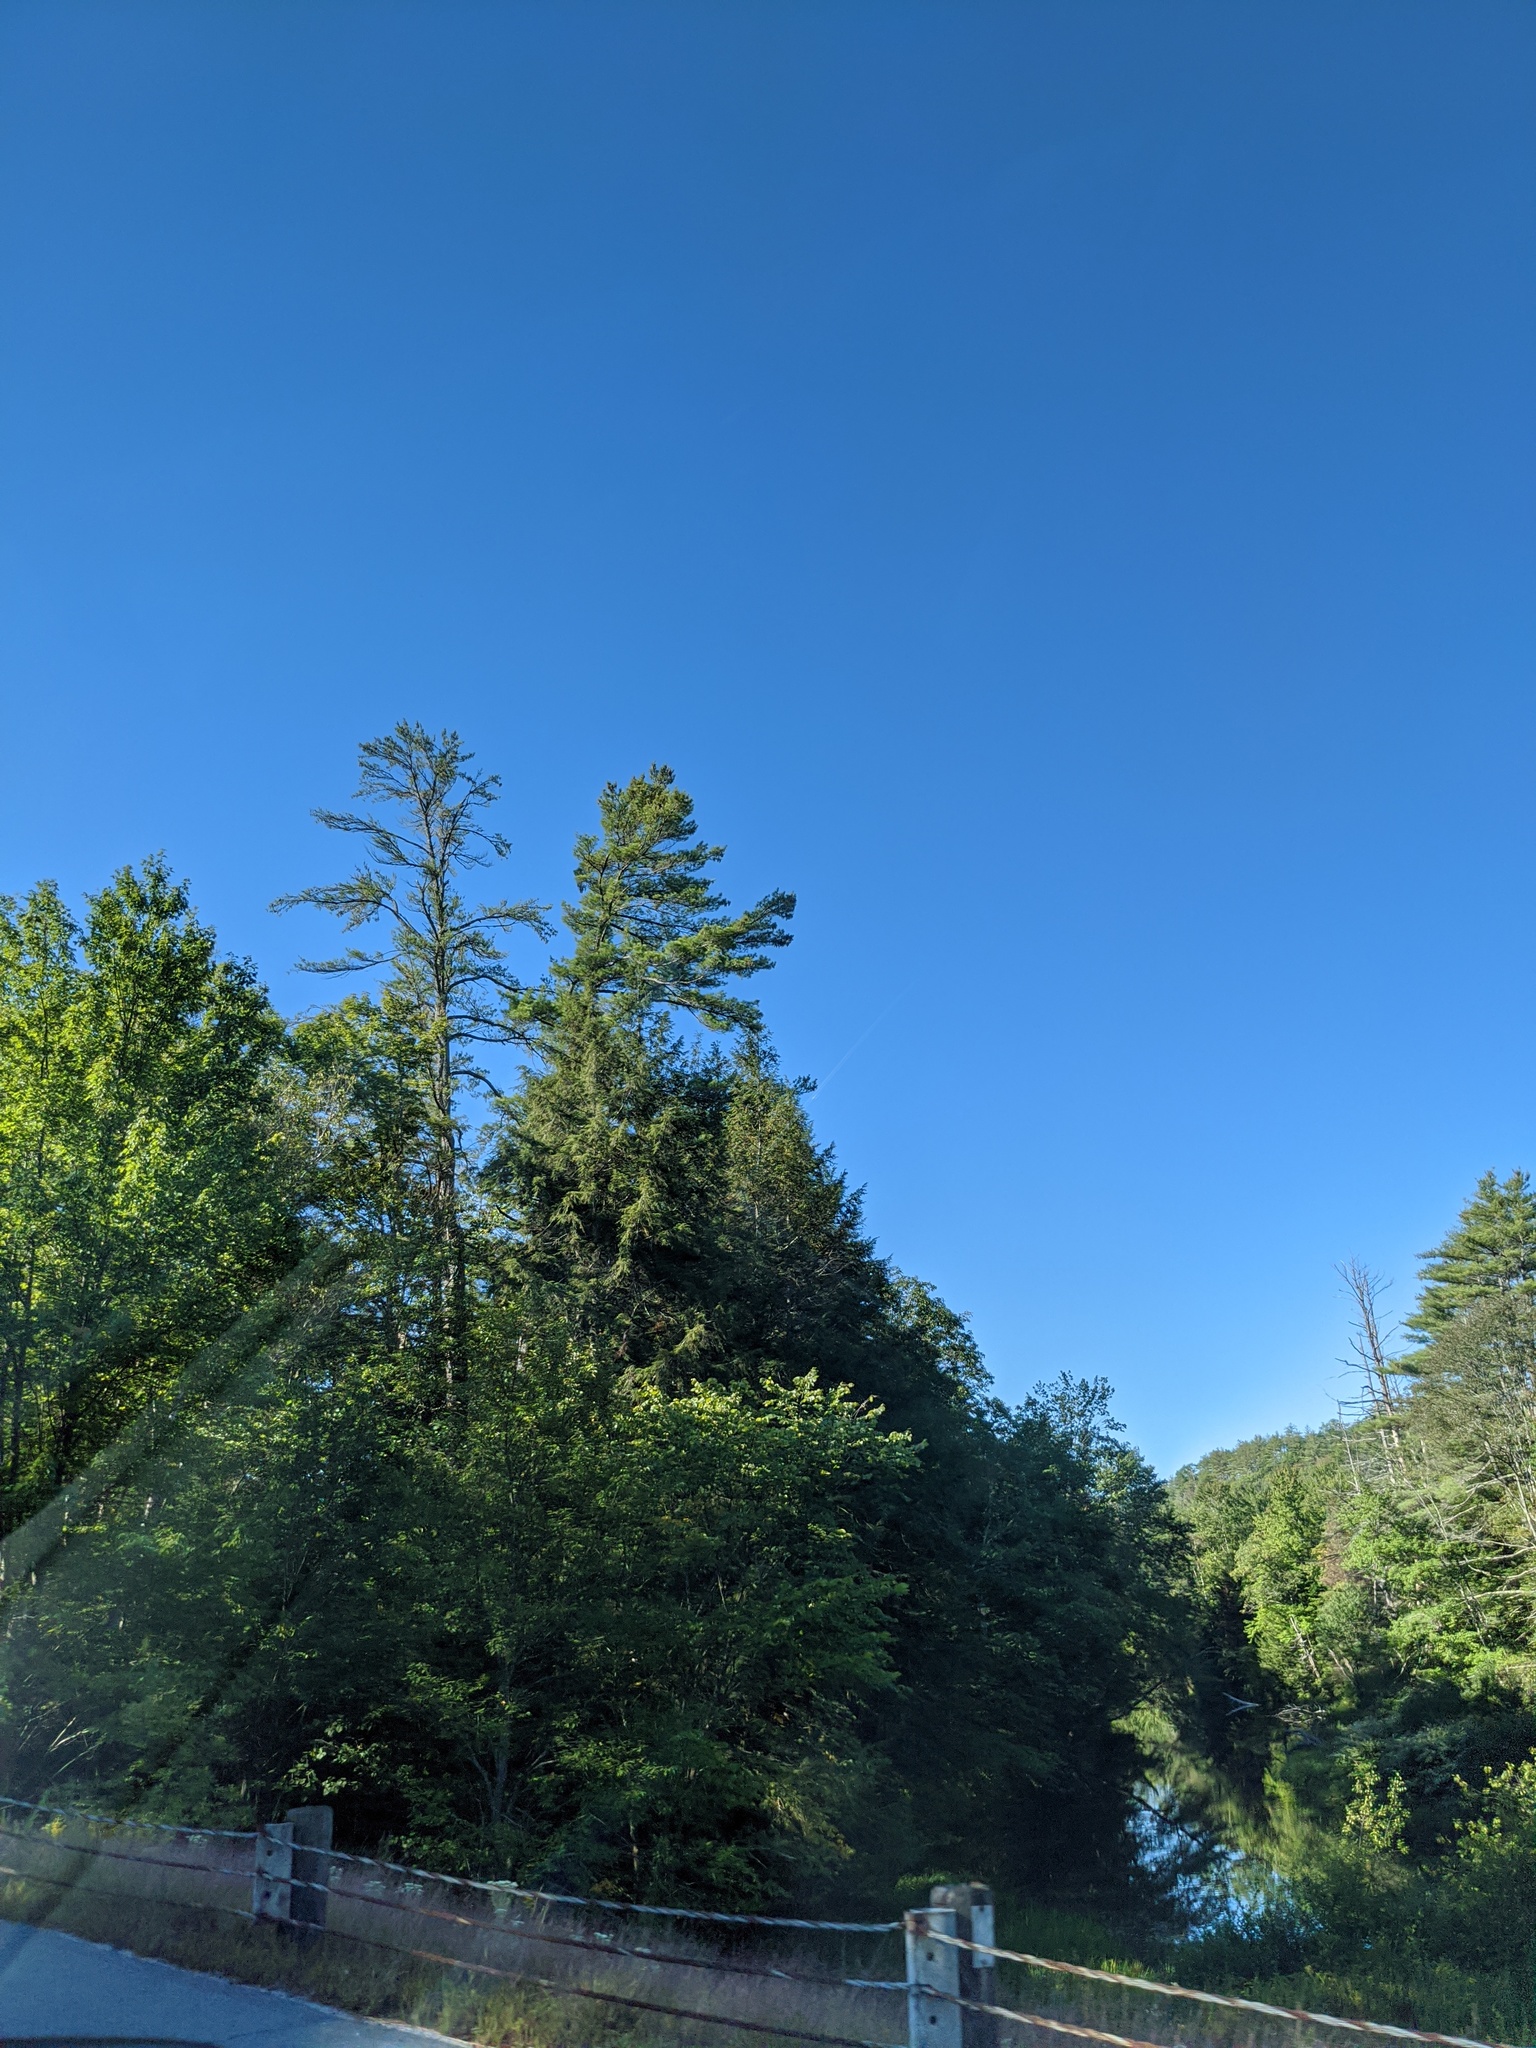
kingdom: Plantae
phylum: Tracheophyta
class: Pinopsida
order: Pinales
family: Pinaceae
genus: Pinus
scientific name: Pinus strobus
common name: Weymouth pine
